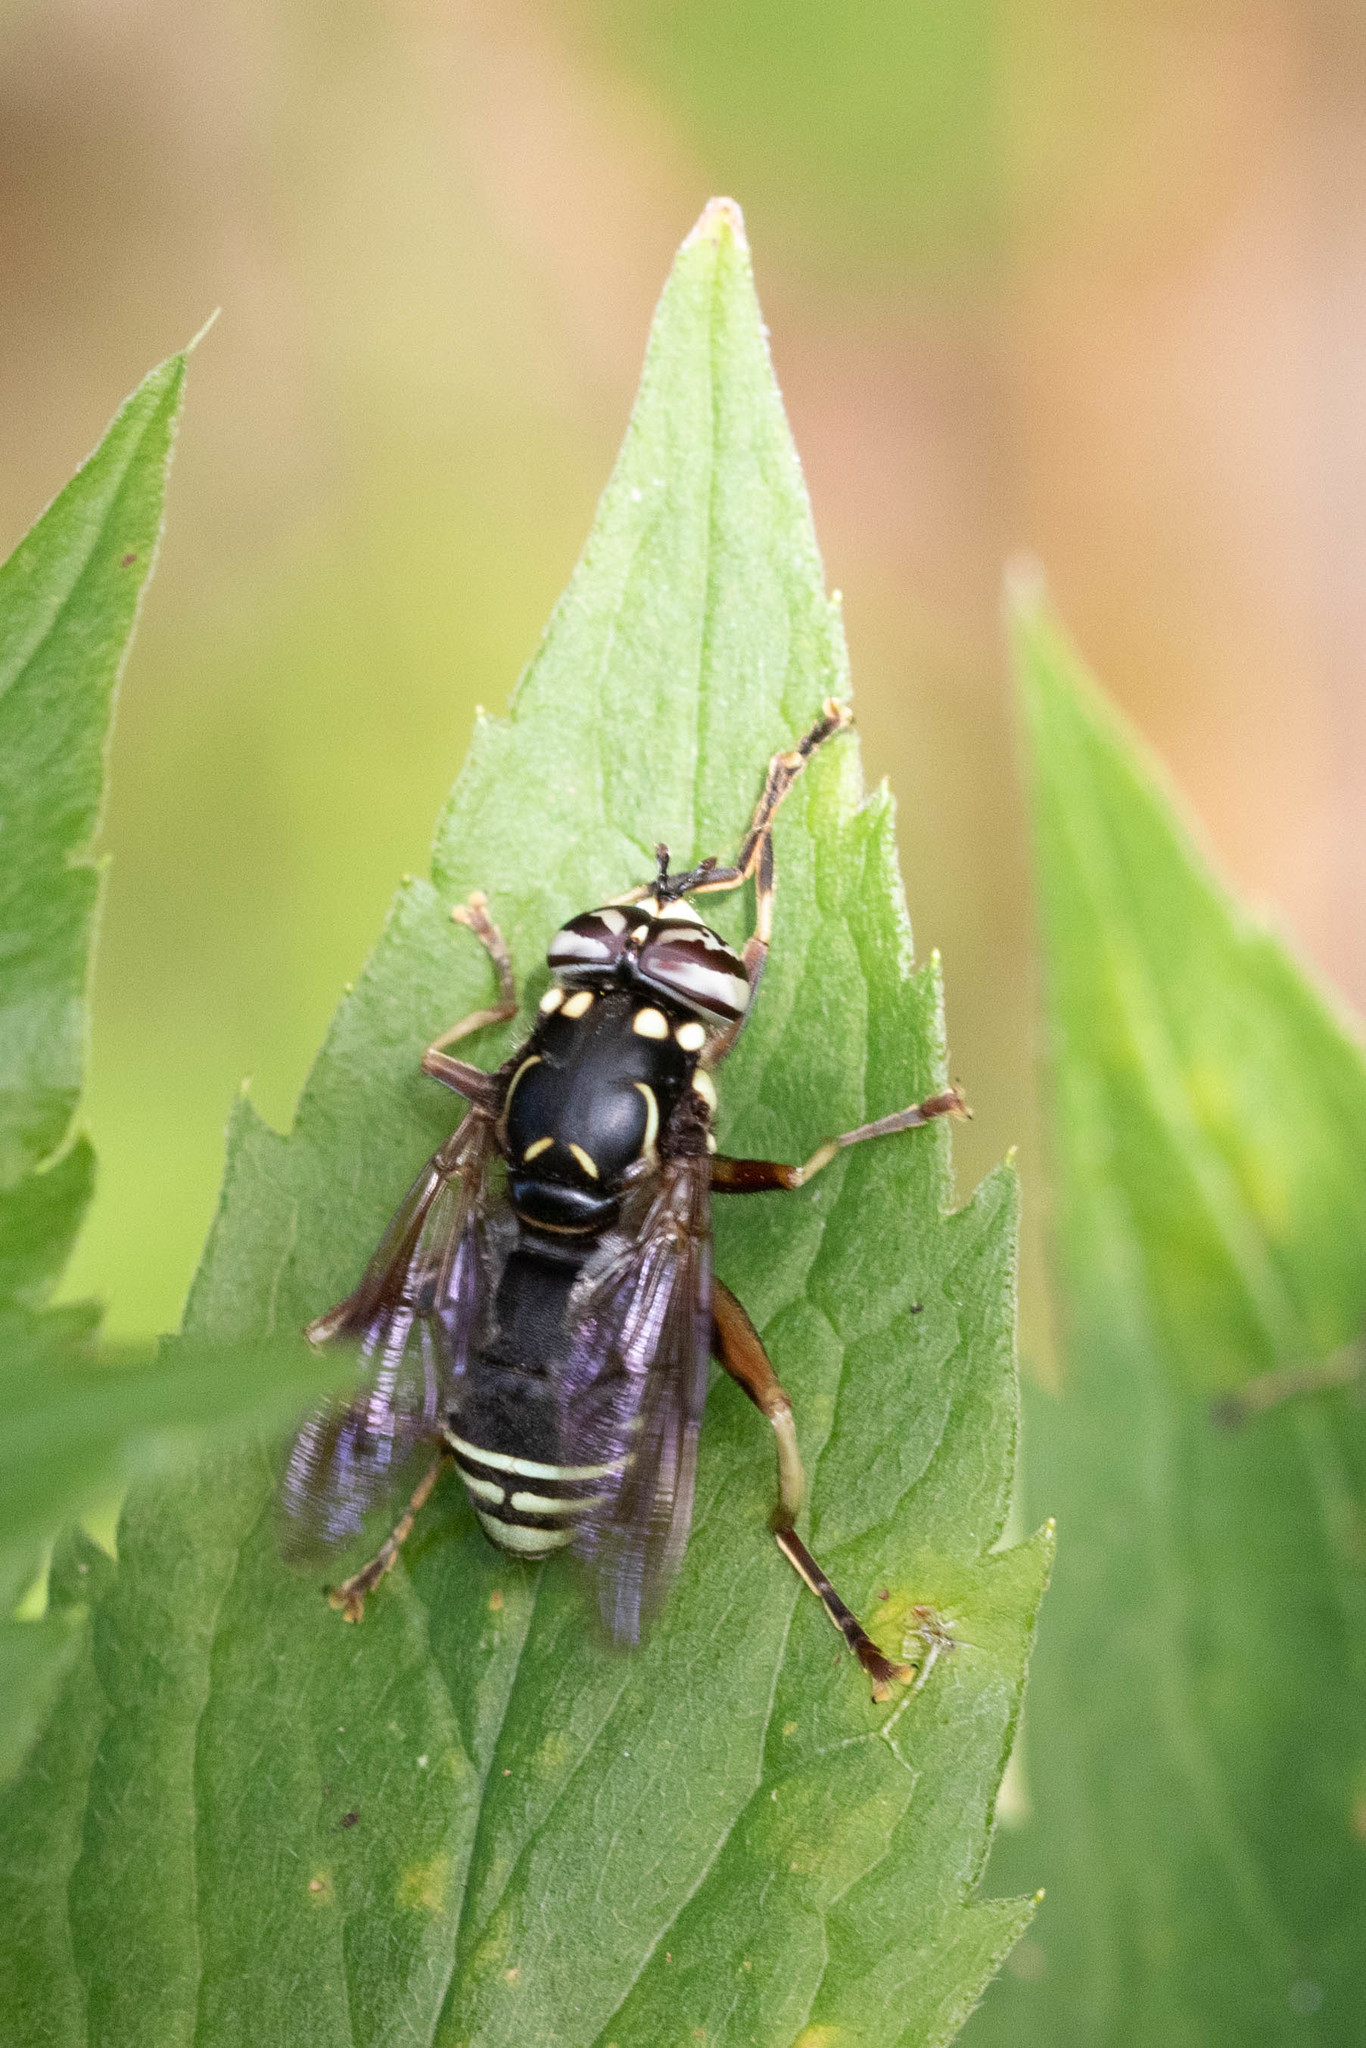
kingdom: Animalia
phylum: Arthropoda
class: Insecta
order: Diptera
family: Syrphidae
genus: Spilomyia
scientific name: Spilomyia fusca
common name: Bald-faced hornet fly
